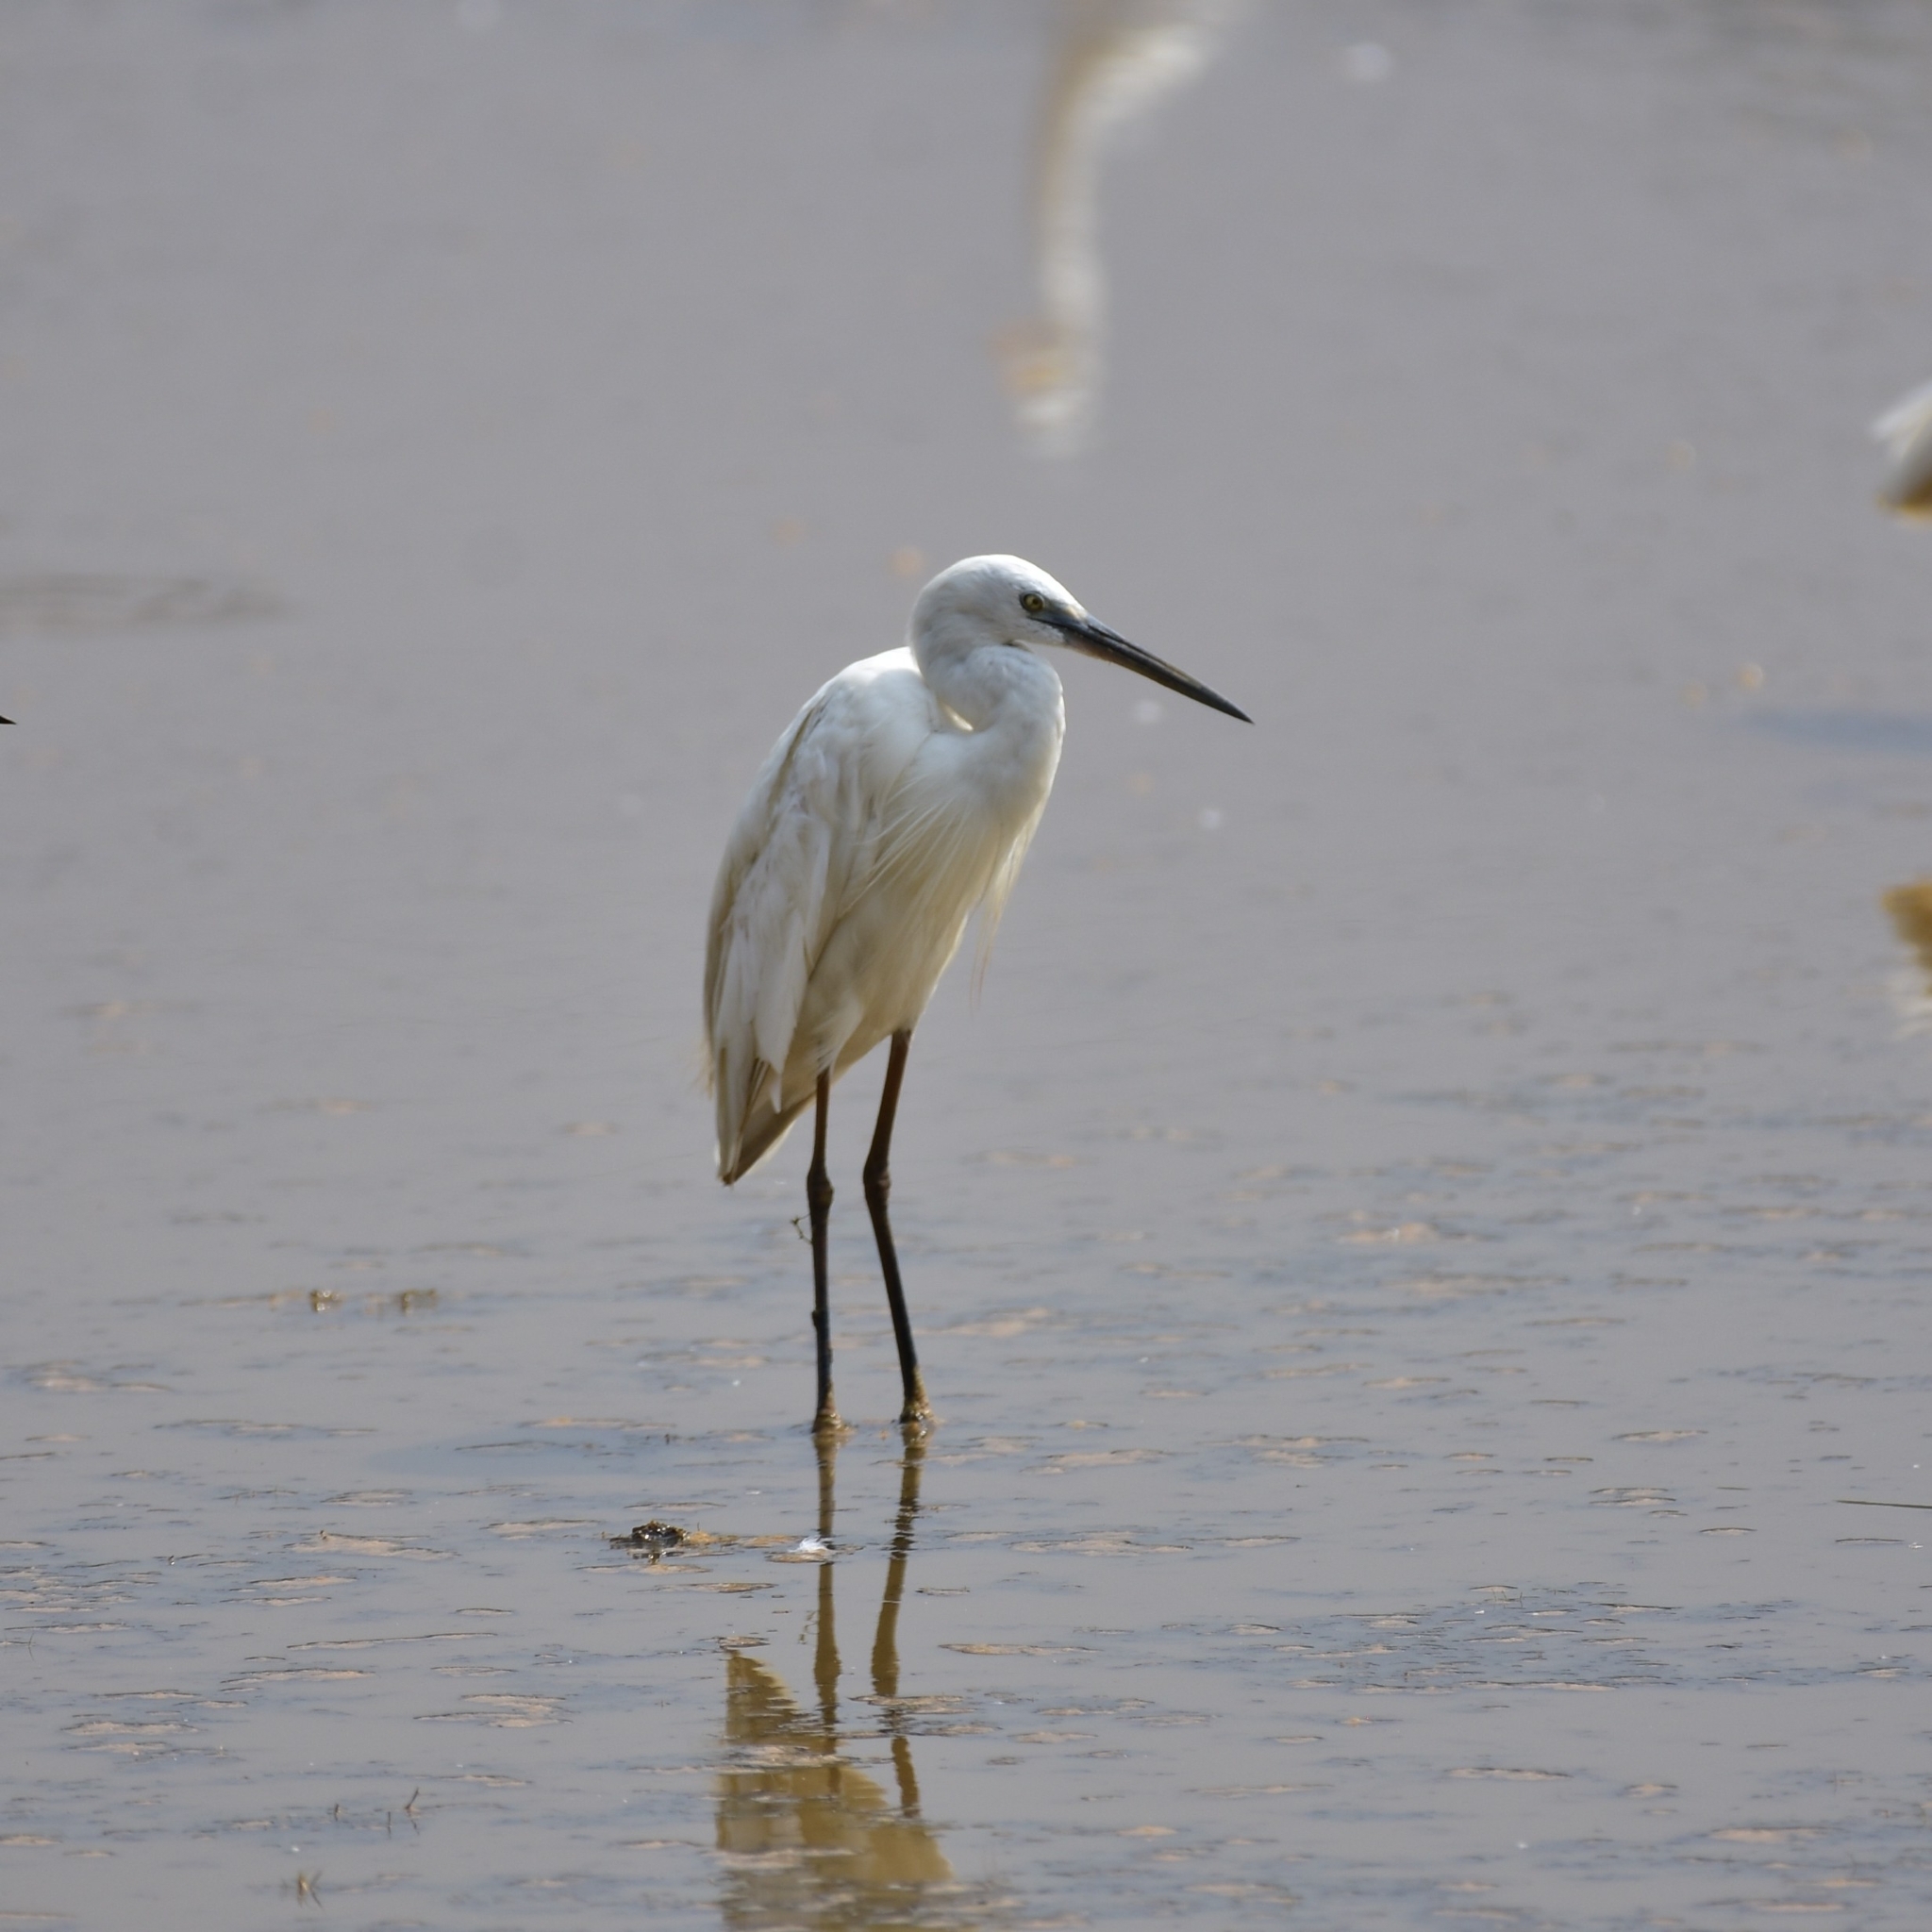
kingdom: Animalia
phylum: Chordata
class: Aves
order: Pelecaniformes
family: Ardeidae
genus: Egretta
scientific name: Egretta garzetta
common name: Little egret
